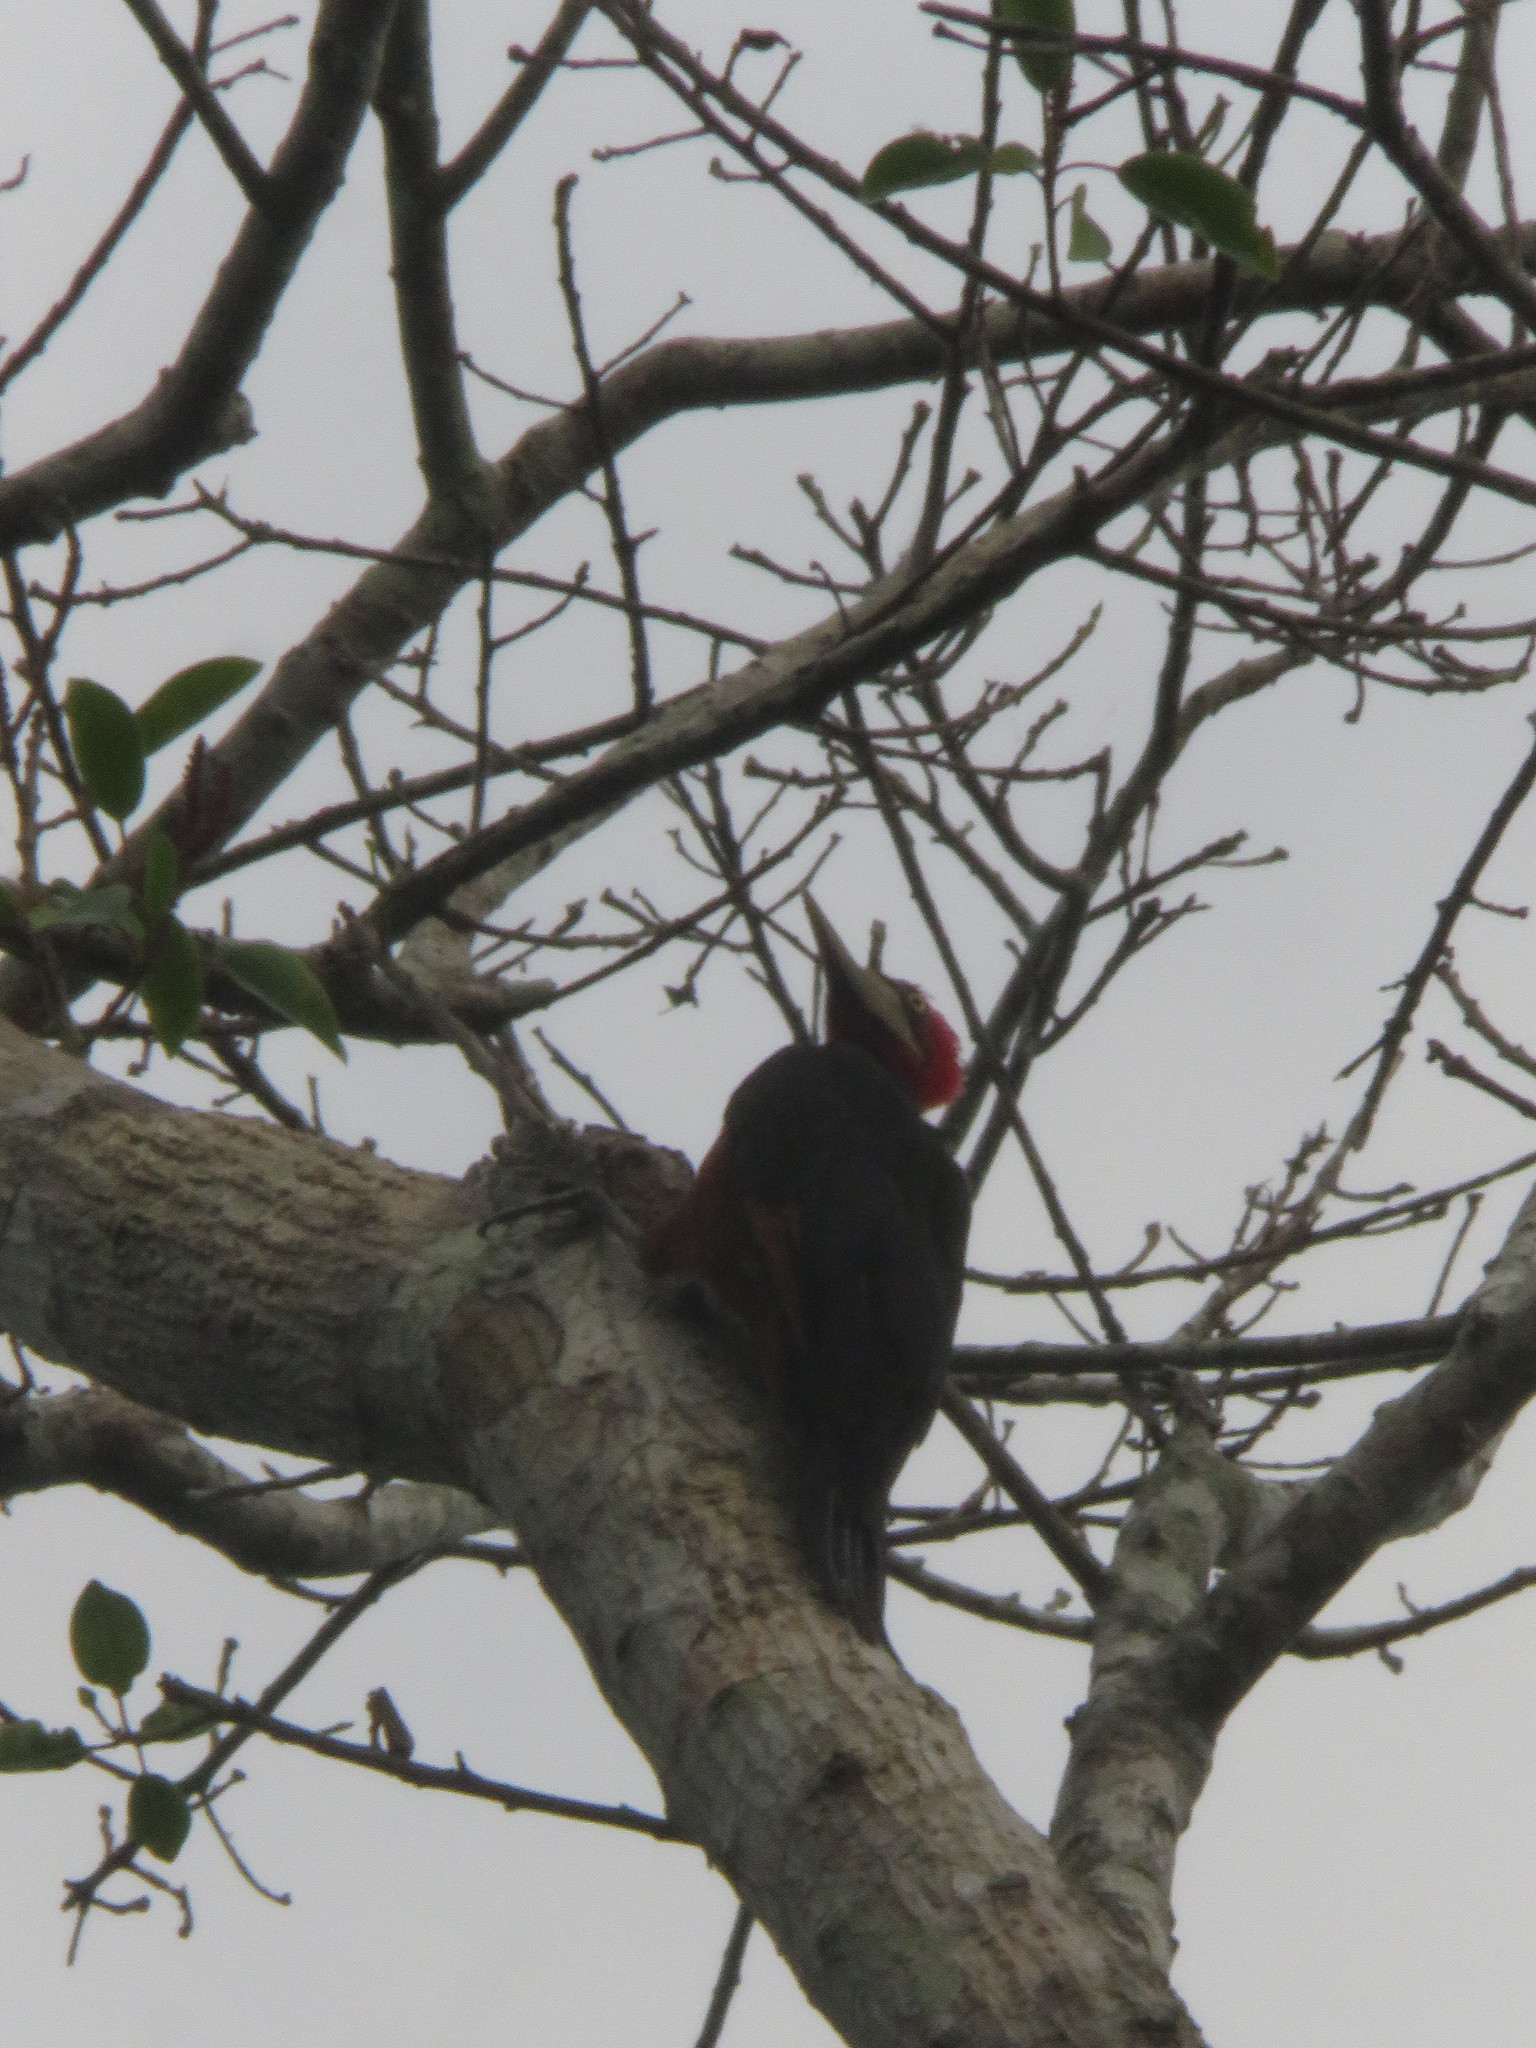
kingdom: Animalia
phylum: Chordata
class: Aves
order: Piciformes
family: Picidae
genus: Campephilus
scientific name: Campephilus rubricollis
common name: Red-necked woodpecker
